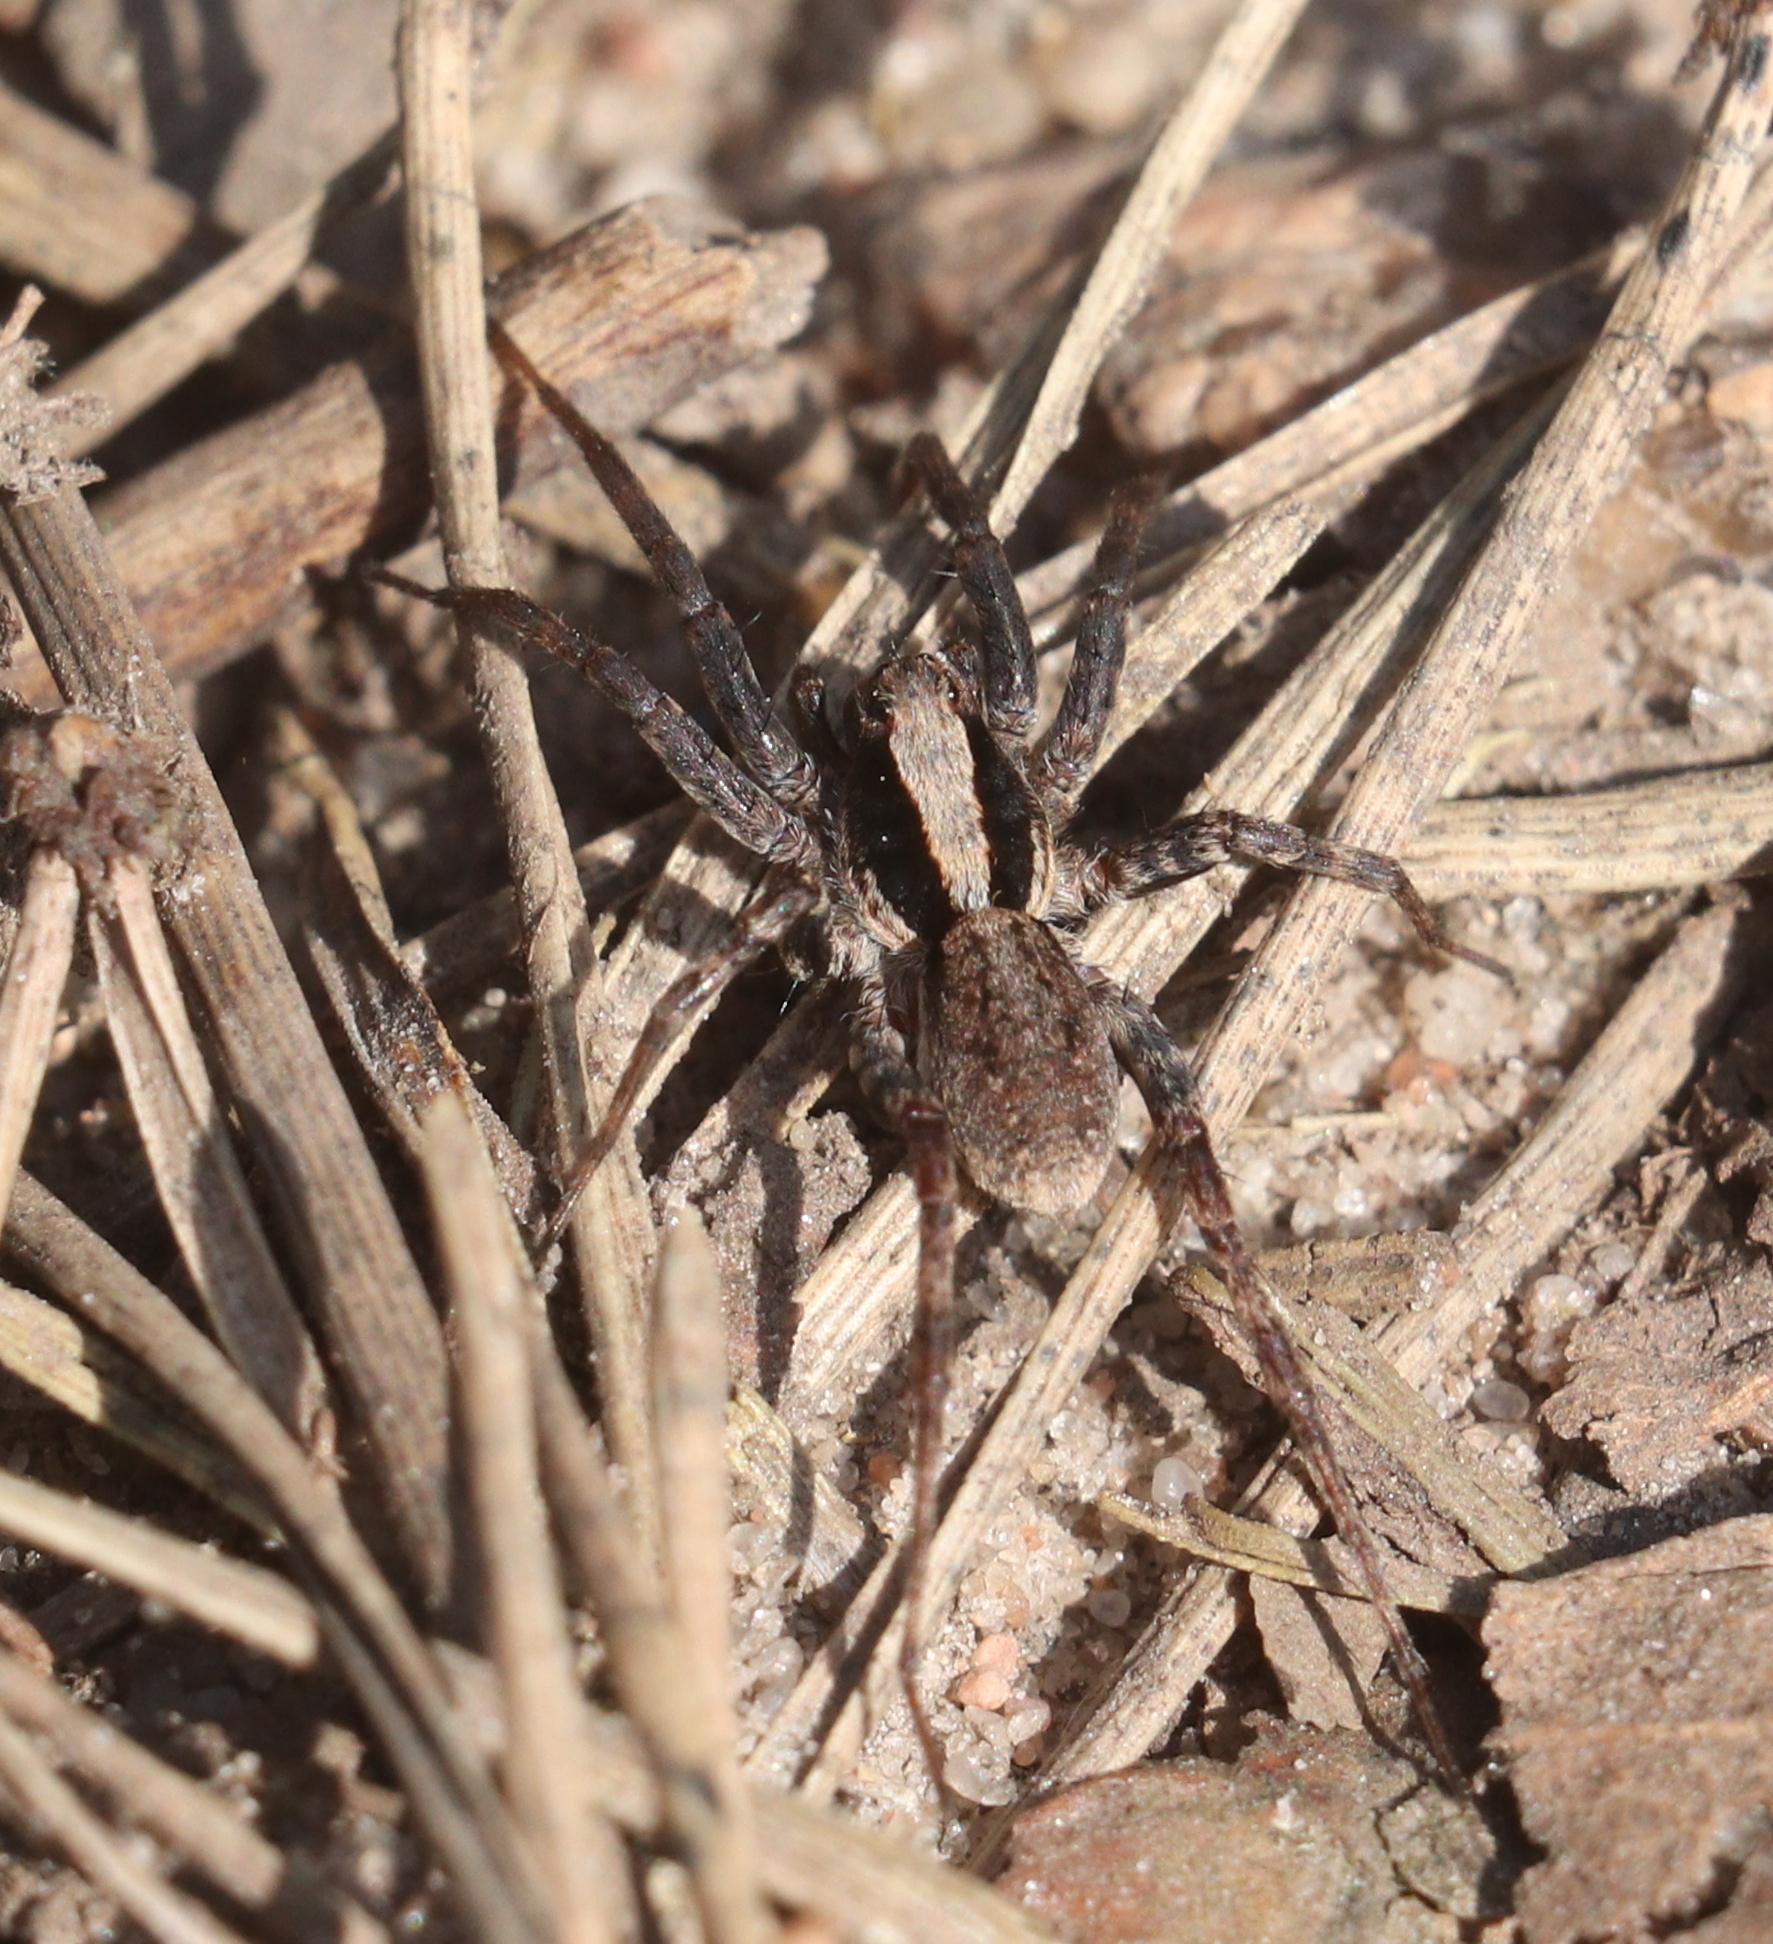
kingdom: Animalia
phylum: Arthropoda
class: Arachnida
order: Araneae
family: Lycosidae
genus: Xerolycosa
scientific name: Xerolycosa nemoralis
